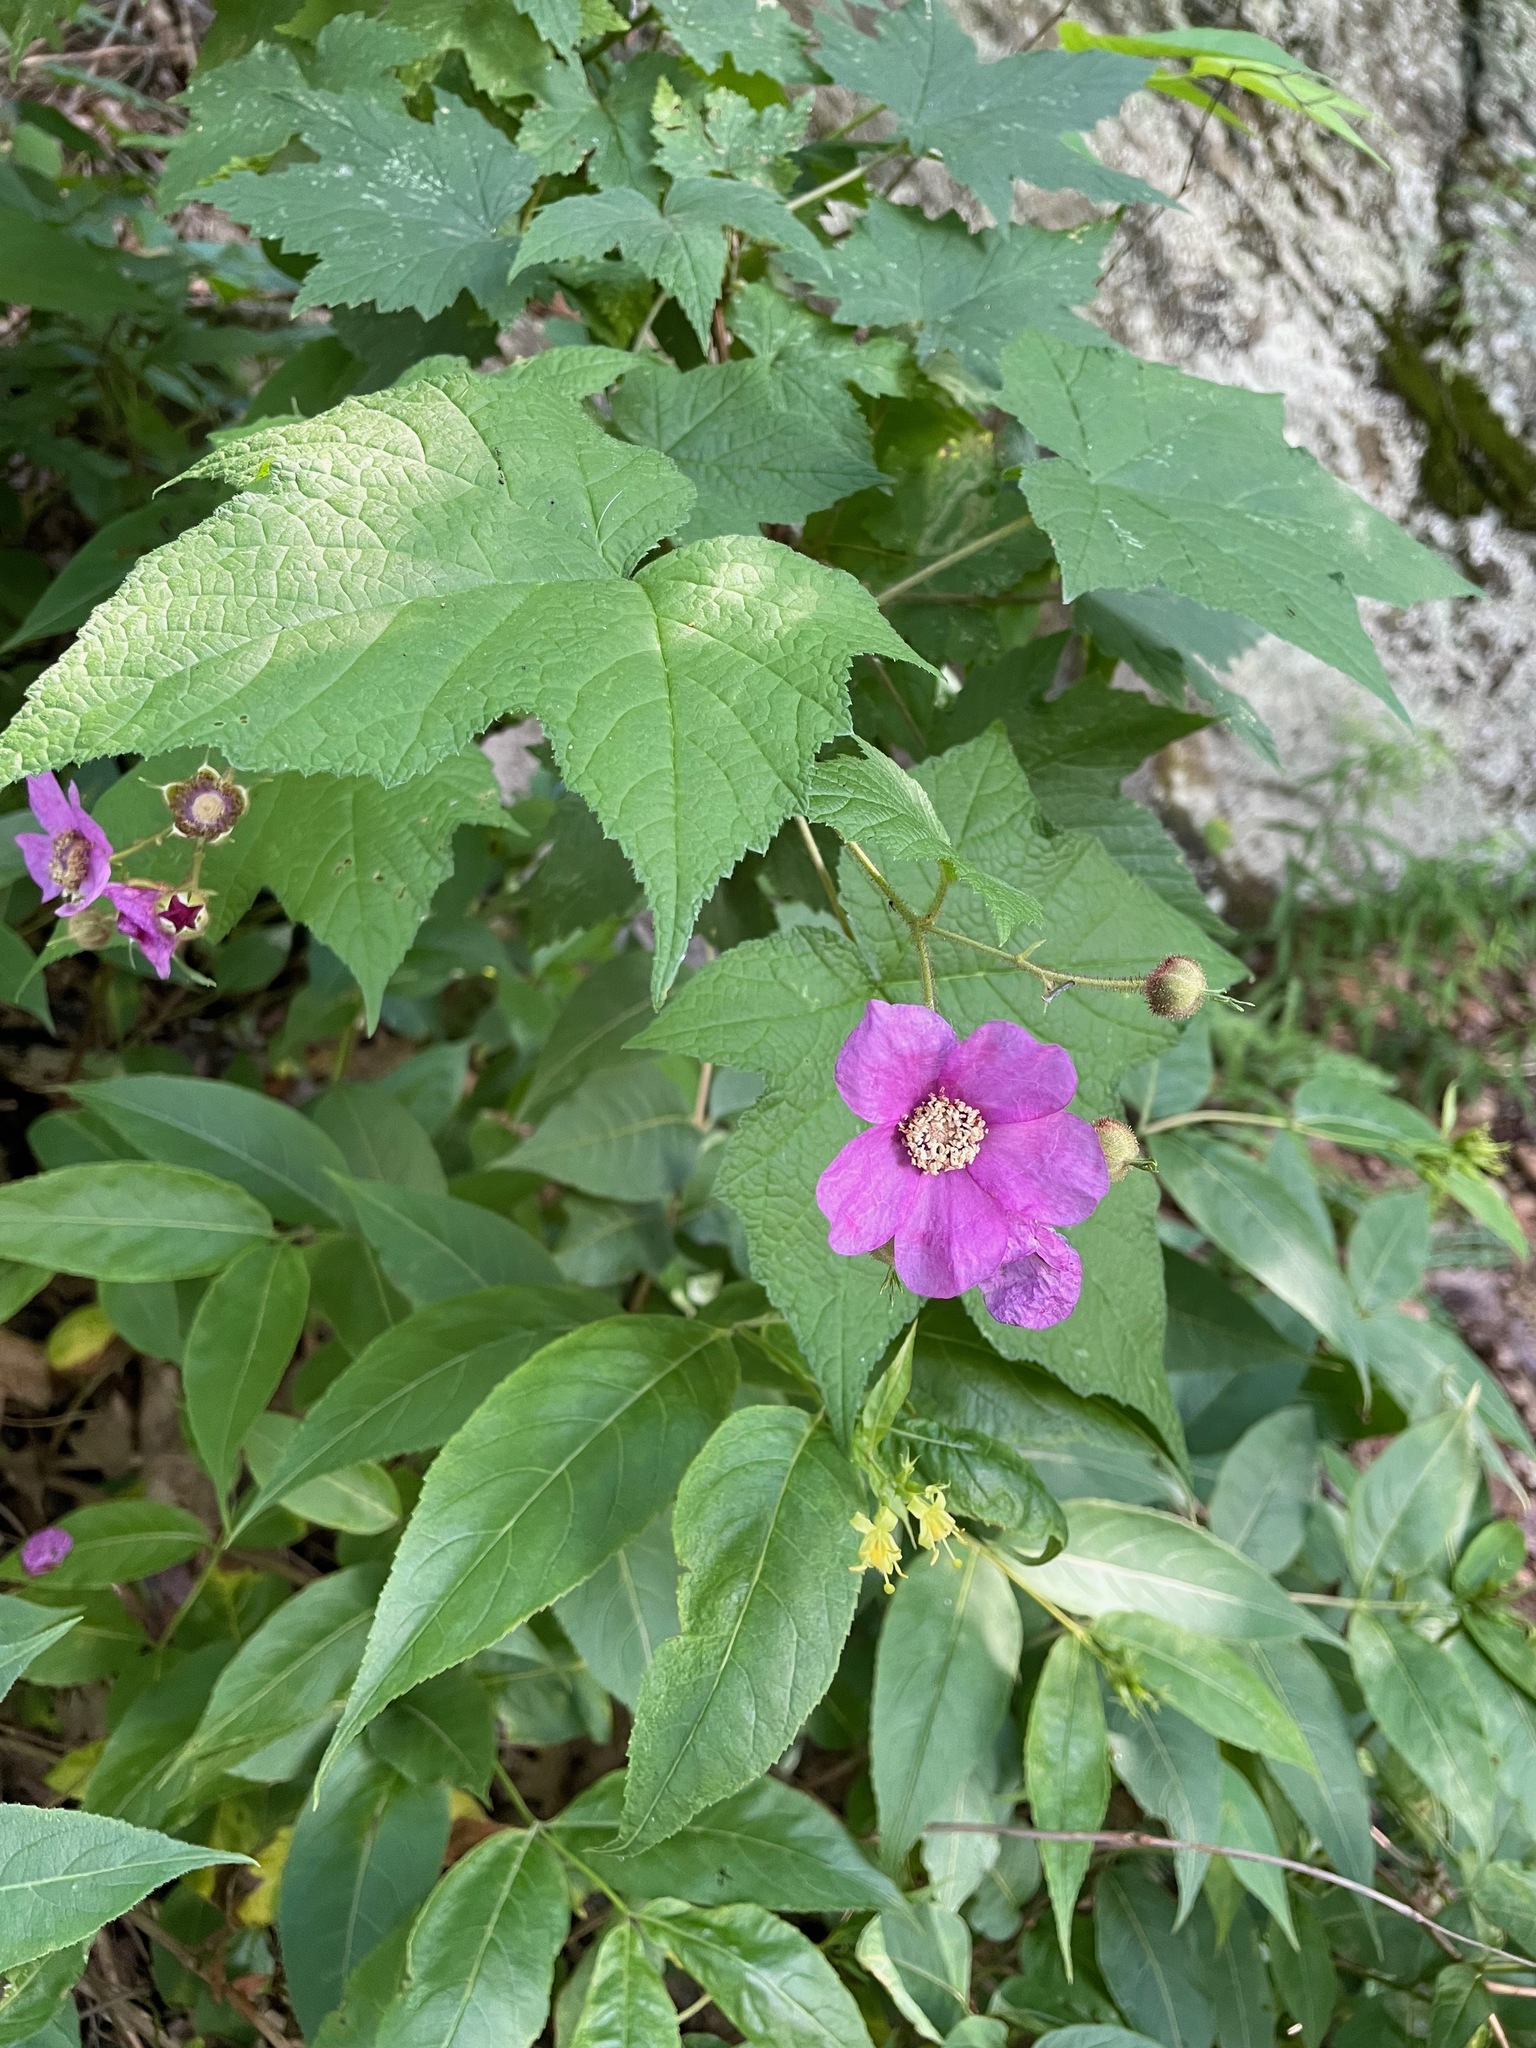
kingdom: Plantae
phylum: Tracheophyta
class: Magnoliopsida
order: Rosales
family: Rosaceae
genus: Rubus
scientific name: Rubus odoratus
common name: Purple-flowered raspberry
